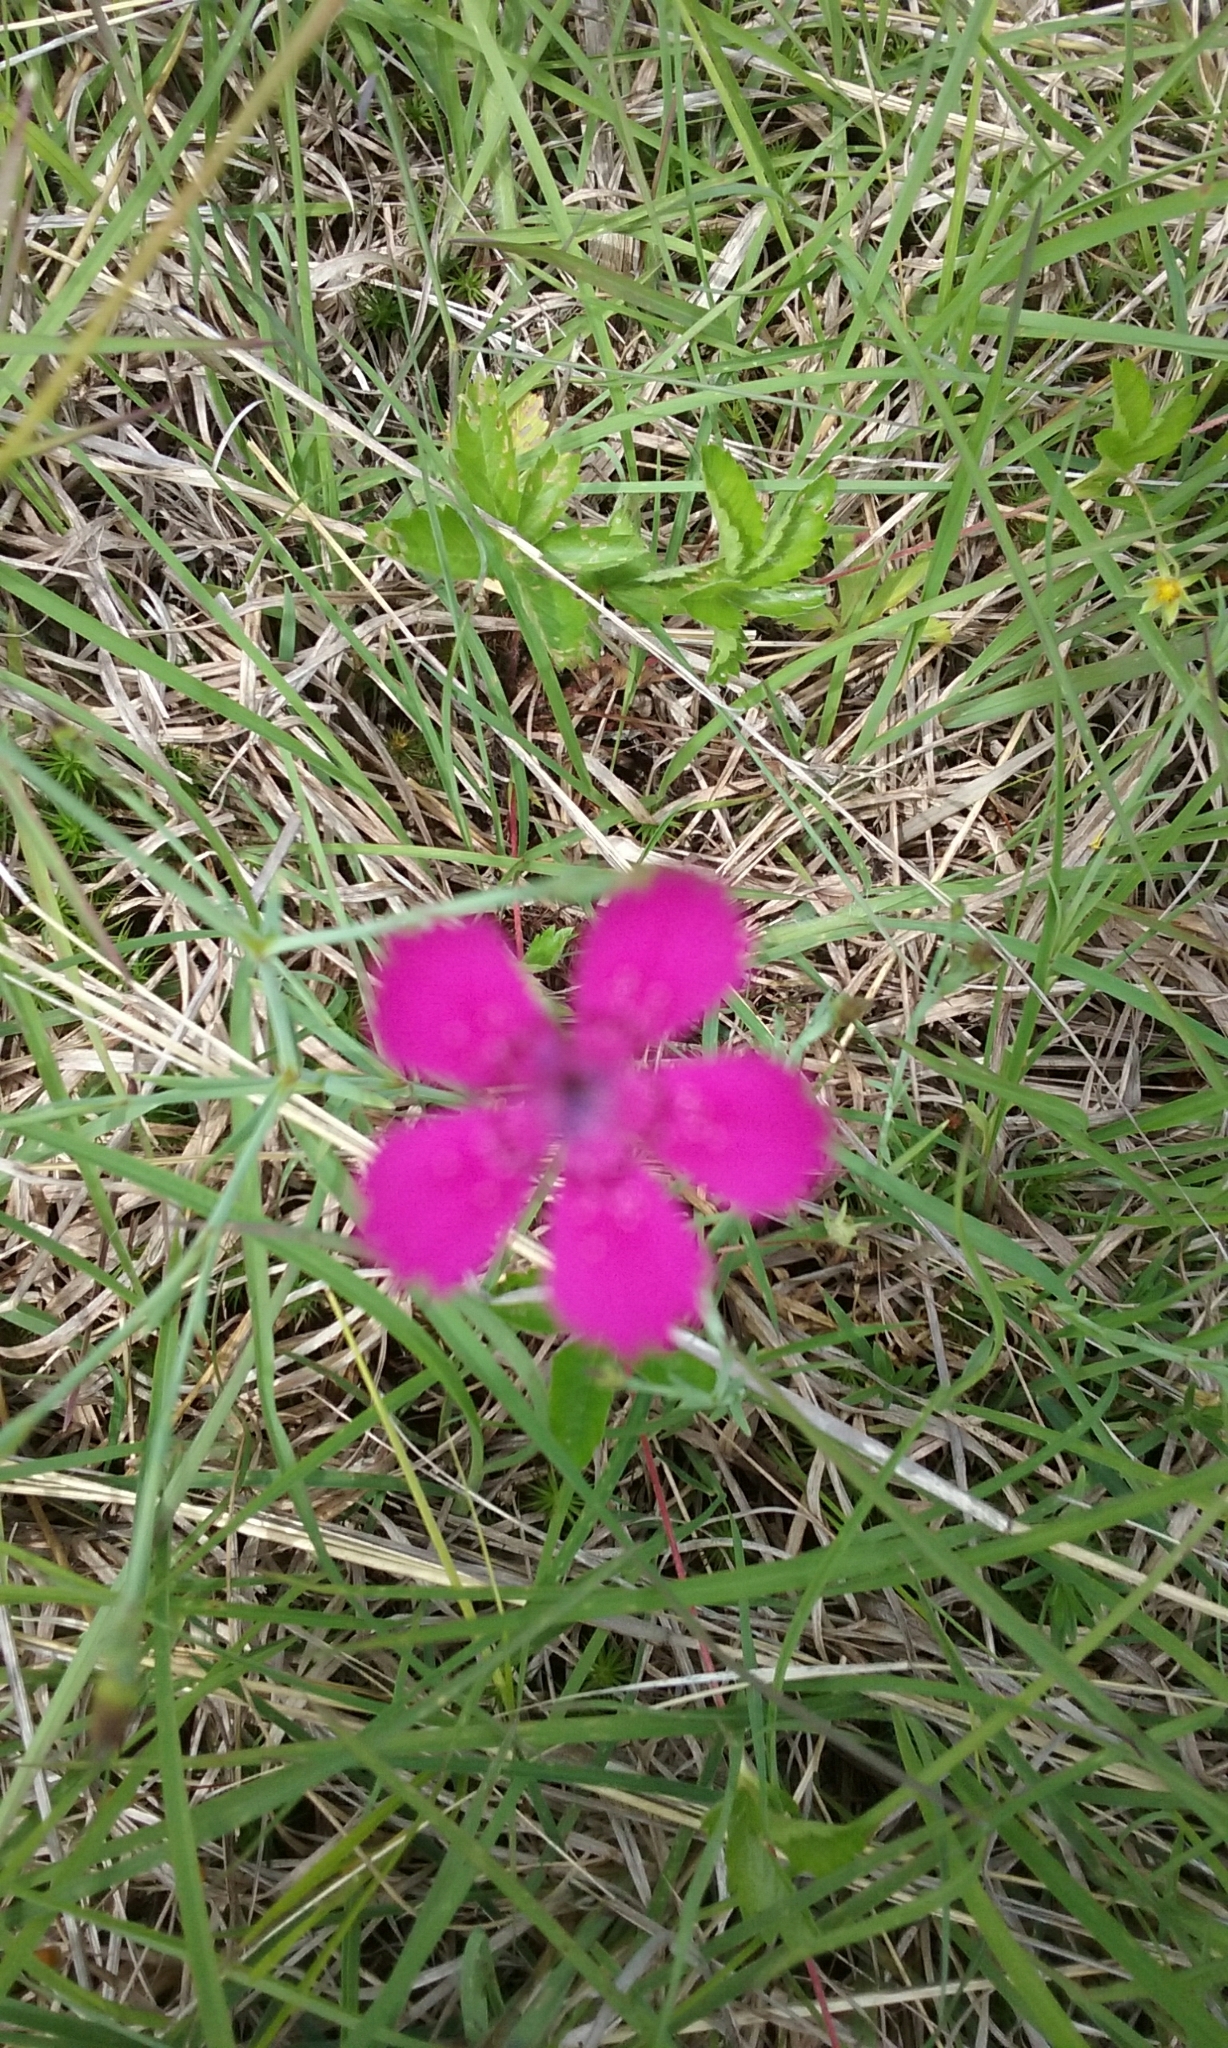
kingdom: Plantae
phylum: Tracheophyta
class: Magnoliopsida
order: Caryophyllales
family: Caryophyllaceae
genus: Dianthus
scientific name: Dianthus deltoides
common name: Maiden pink
